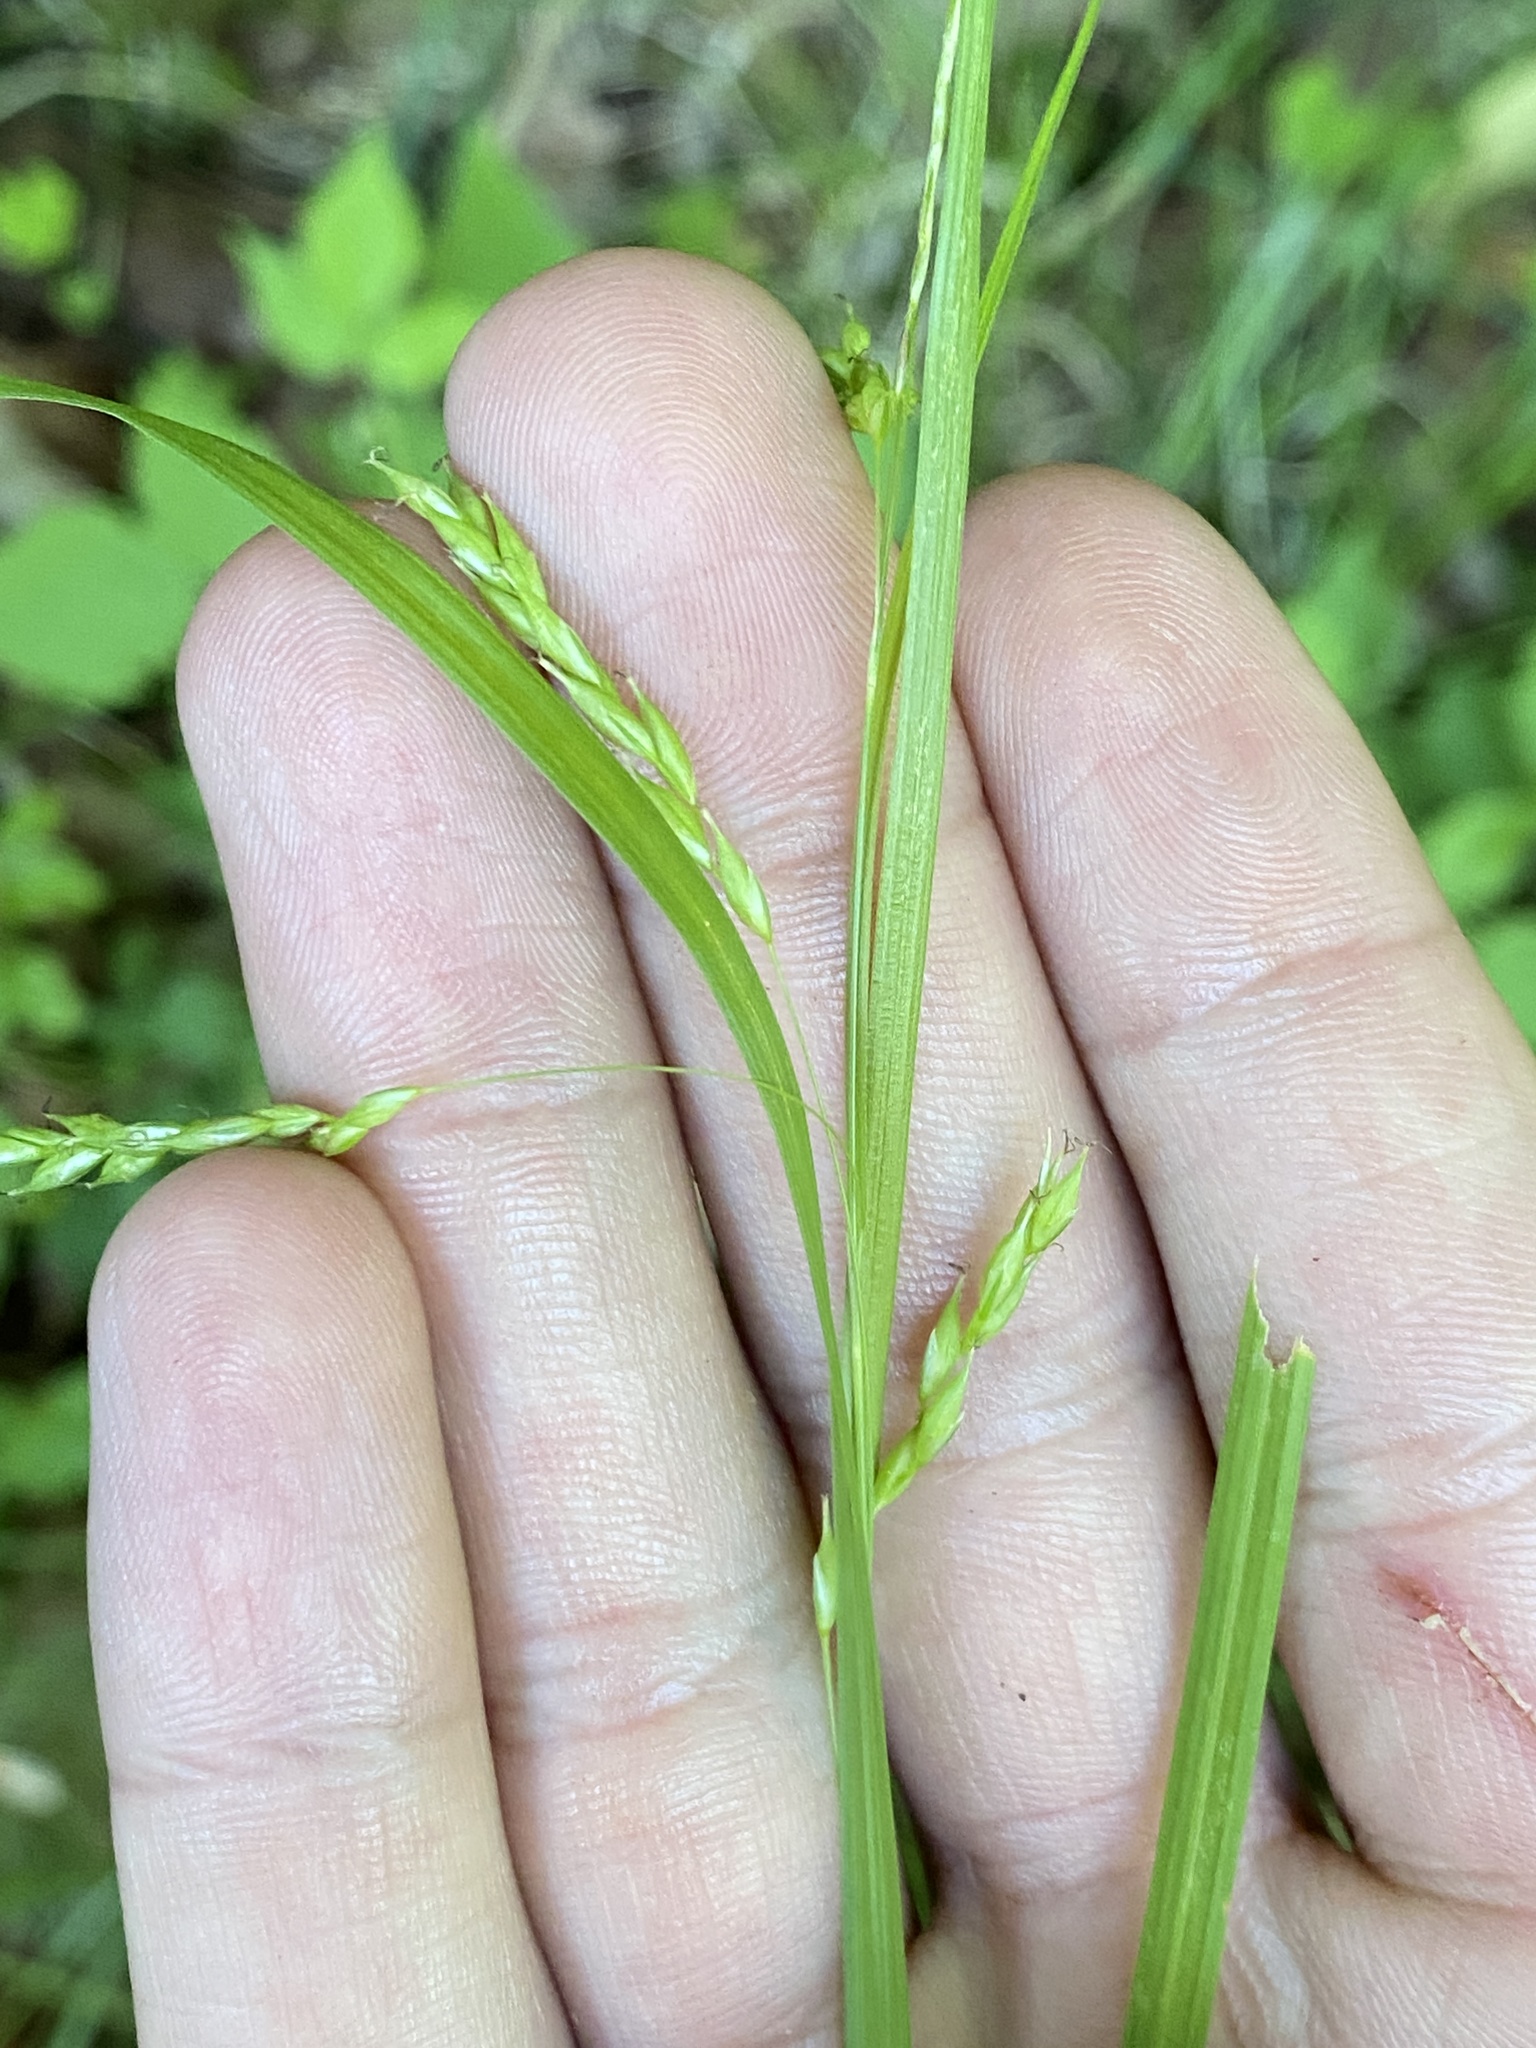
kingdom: Plantae
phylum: Tracheophyta
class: Liliopsida
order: Poales
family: Cyperaceae
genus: Carex
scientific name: Carex debilis
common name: White-edge sedge
